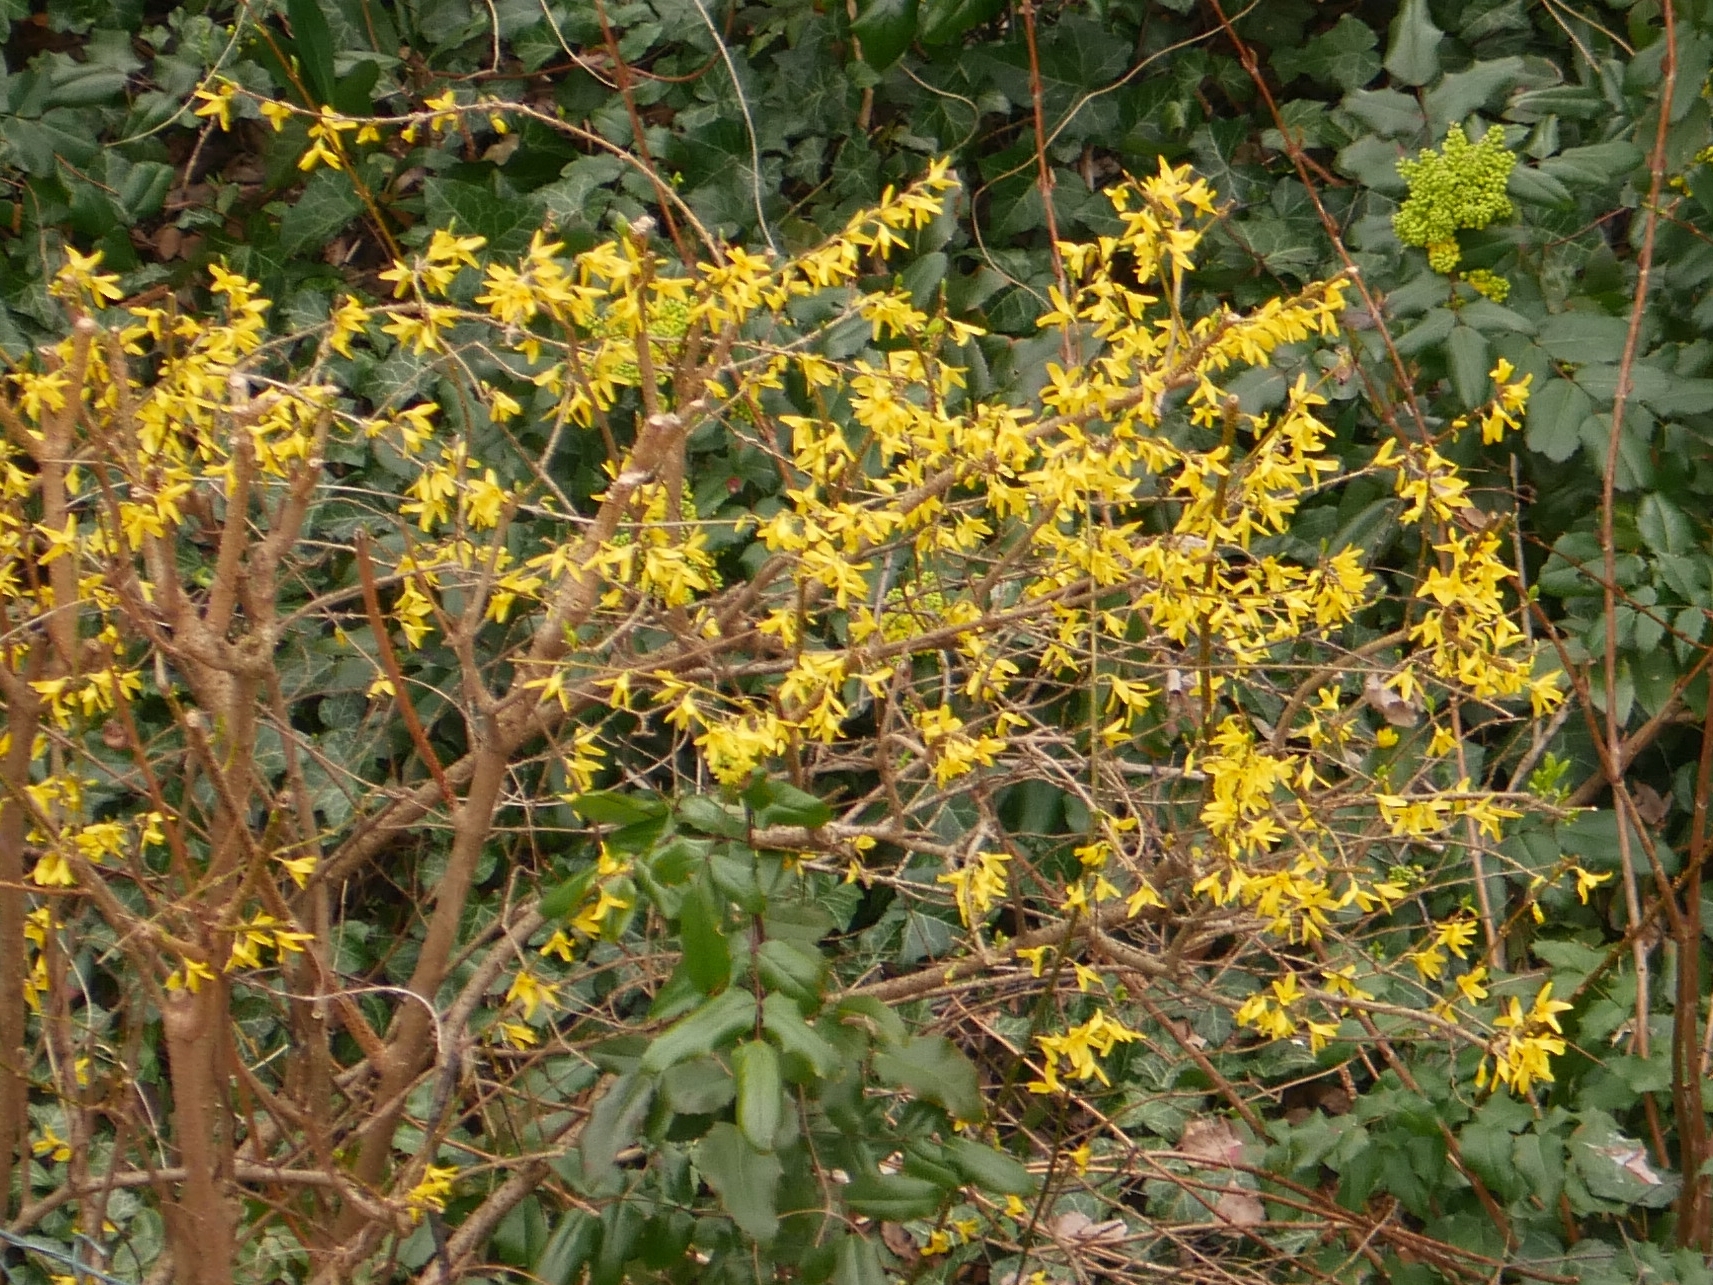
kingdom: Plantae
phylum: Tracheophyta
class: Magnoliopsida
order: Lamiales
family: Oleaceae
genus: Forsythia
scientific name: Forsythia intermedia
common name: Forsythia
